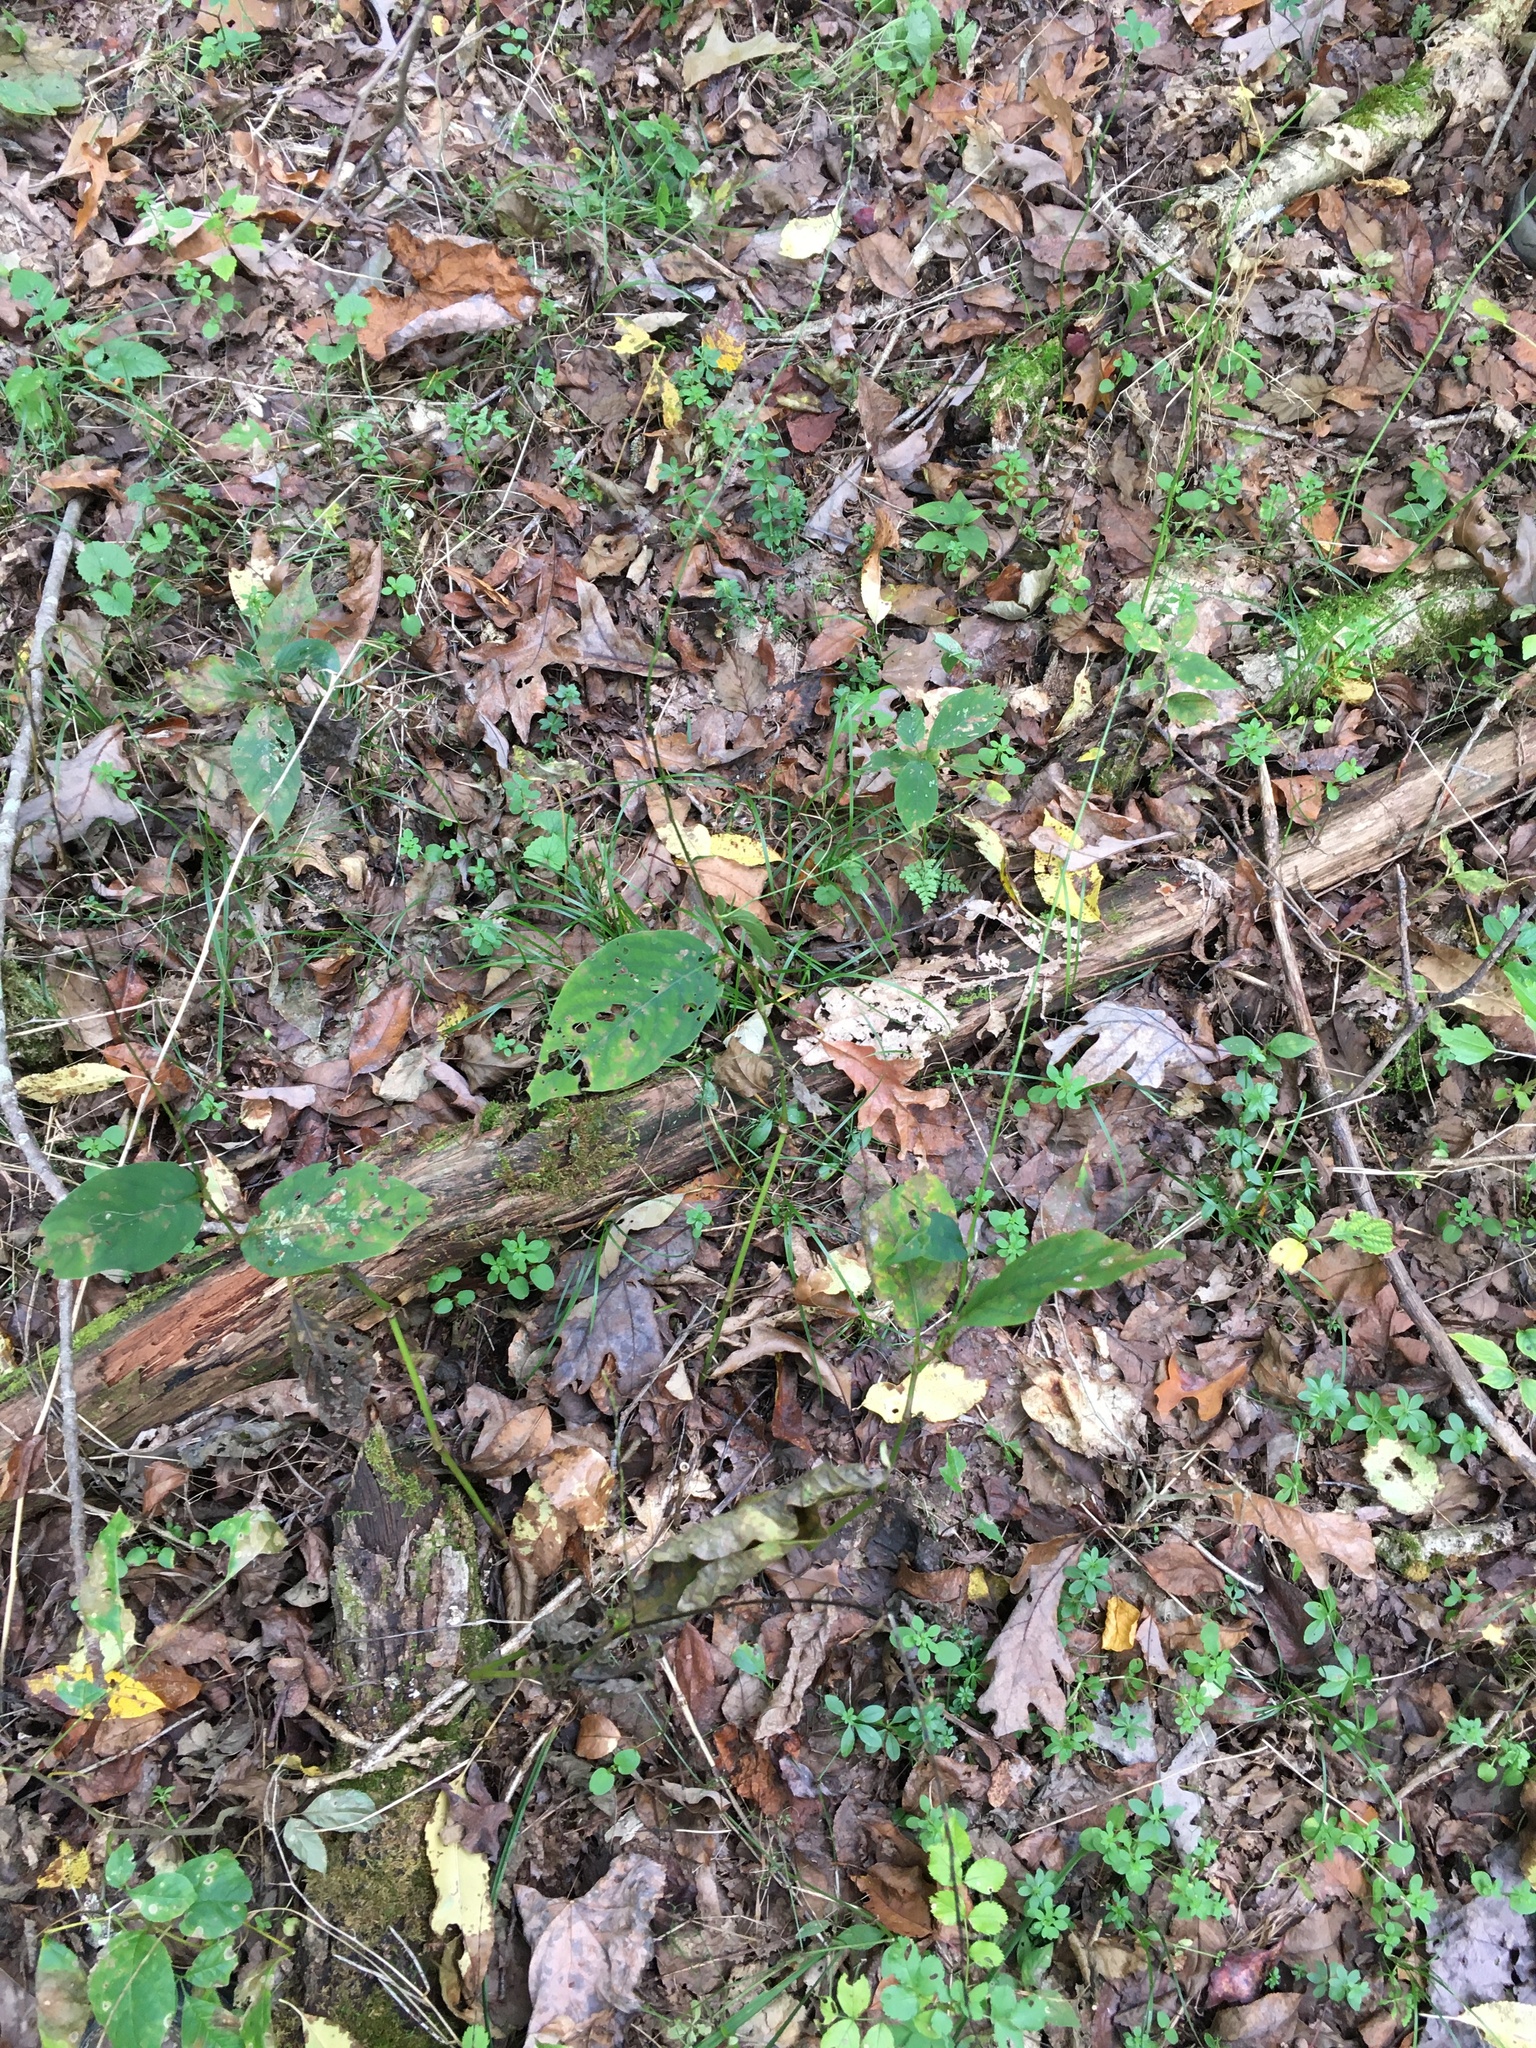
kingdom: Plantae
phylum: Tracheophyta
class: Magnoliopsida
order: Caryophyllales
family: Polygonaceae
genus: Persicaria
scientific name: Persicaria virginiana
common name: Jumpseed
